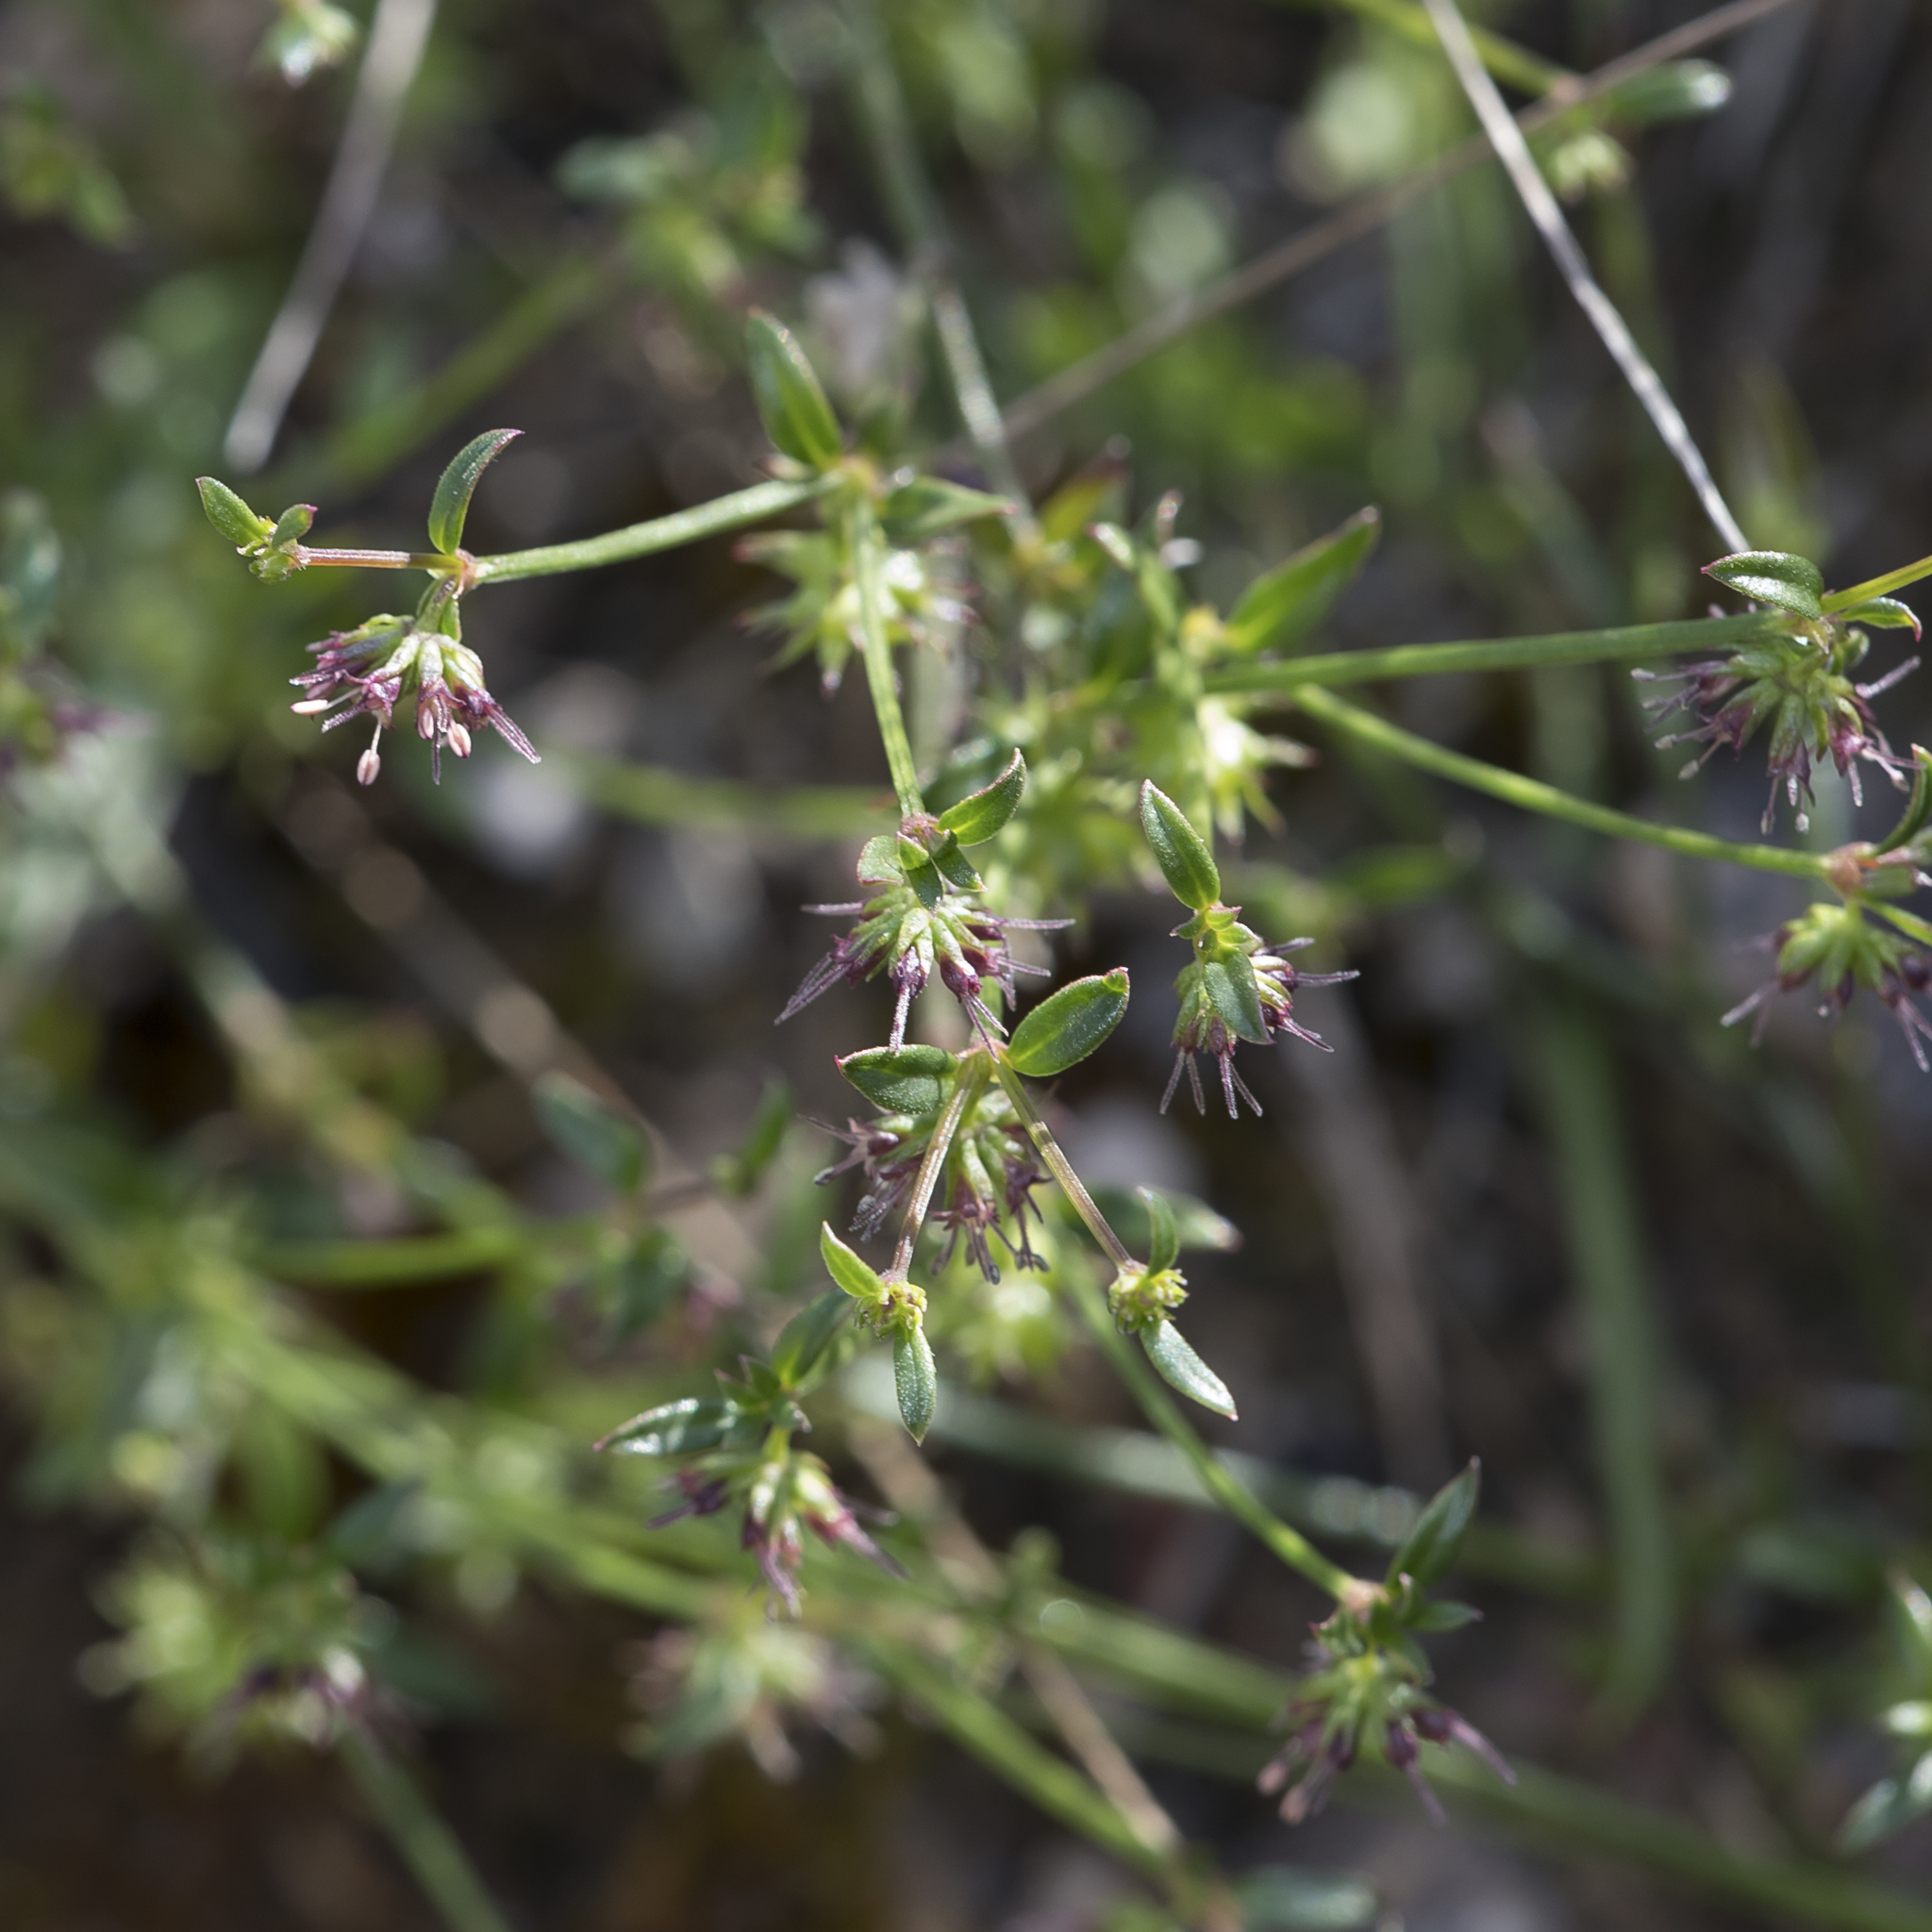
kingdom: Plantae
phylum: Tracheophyta
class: Magnoliopsida
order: Gentianales
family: Rubiaceae
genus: Opercularia
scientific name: Opercularia varia
